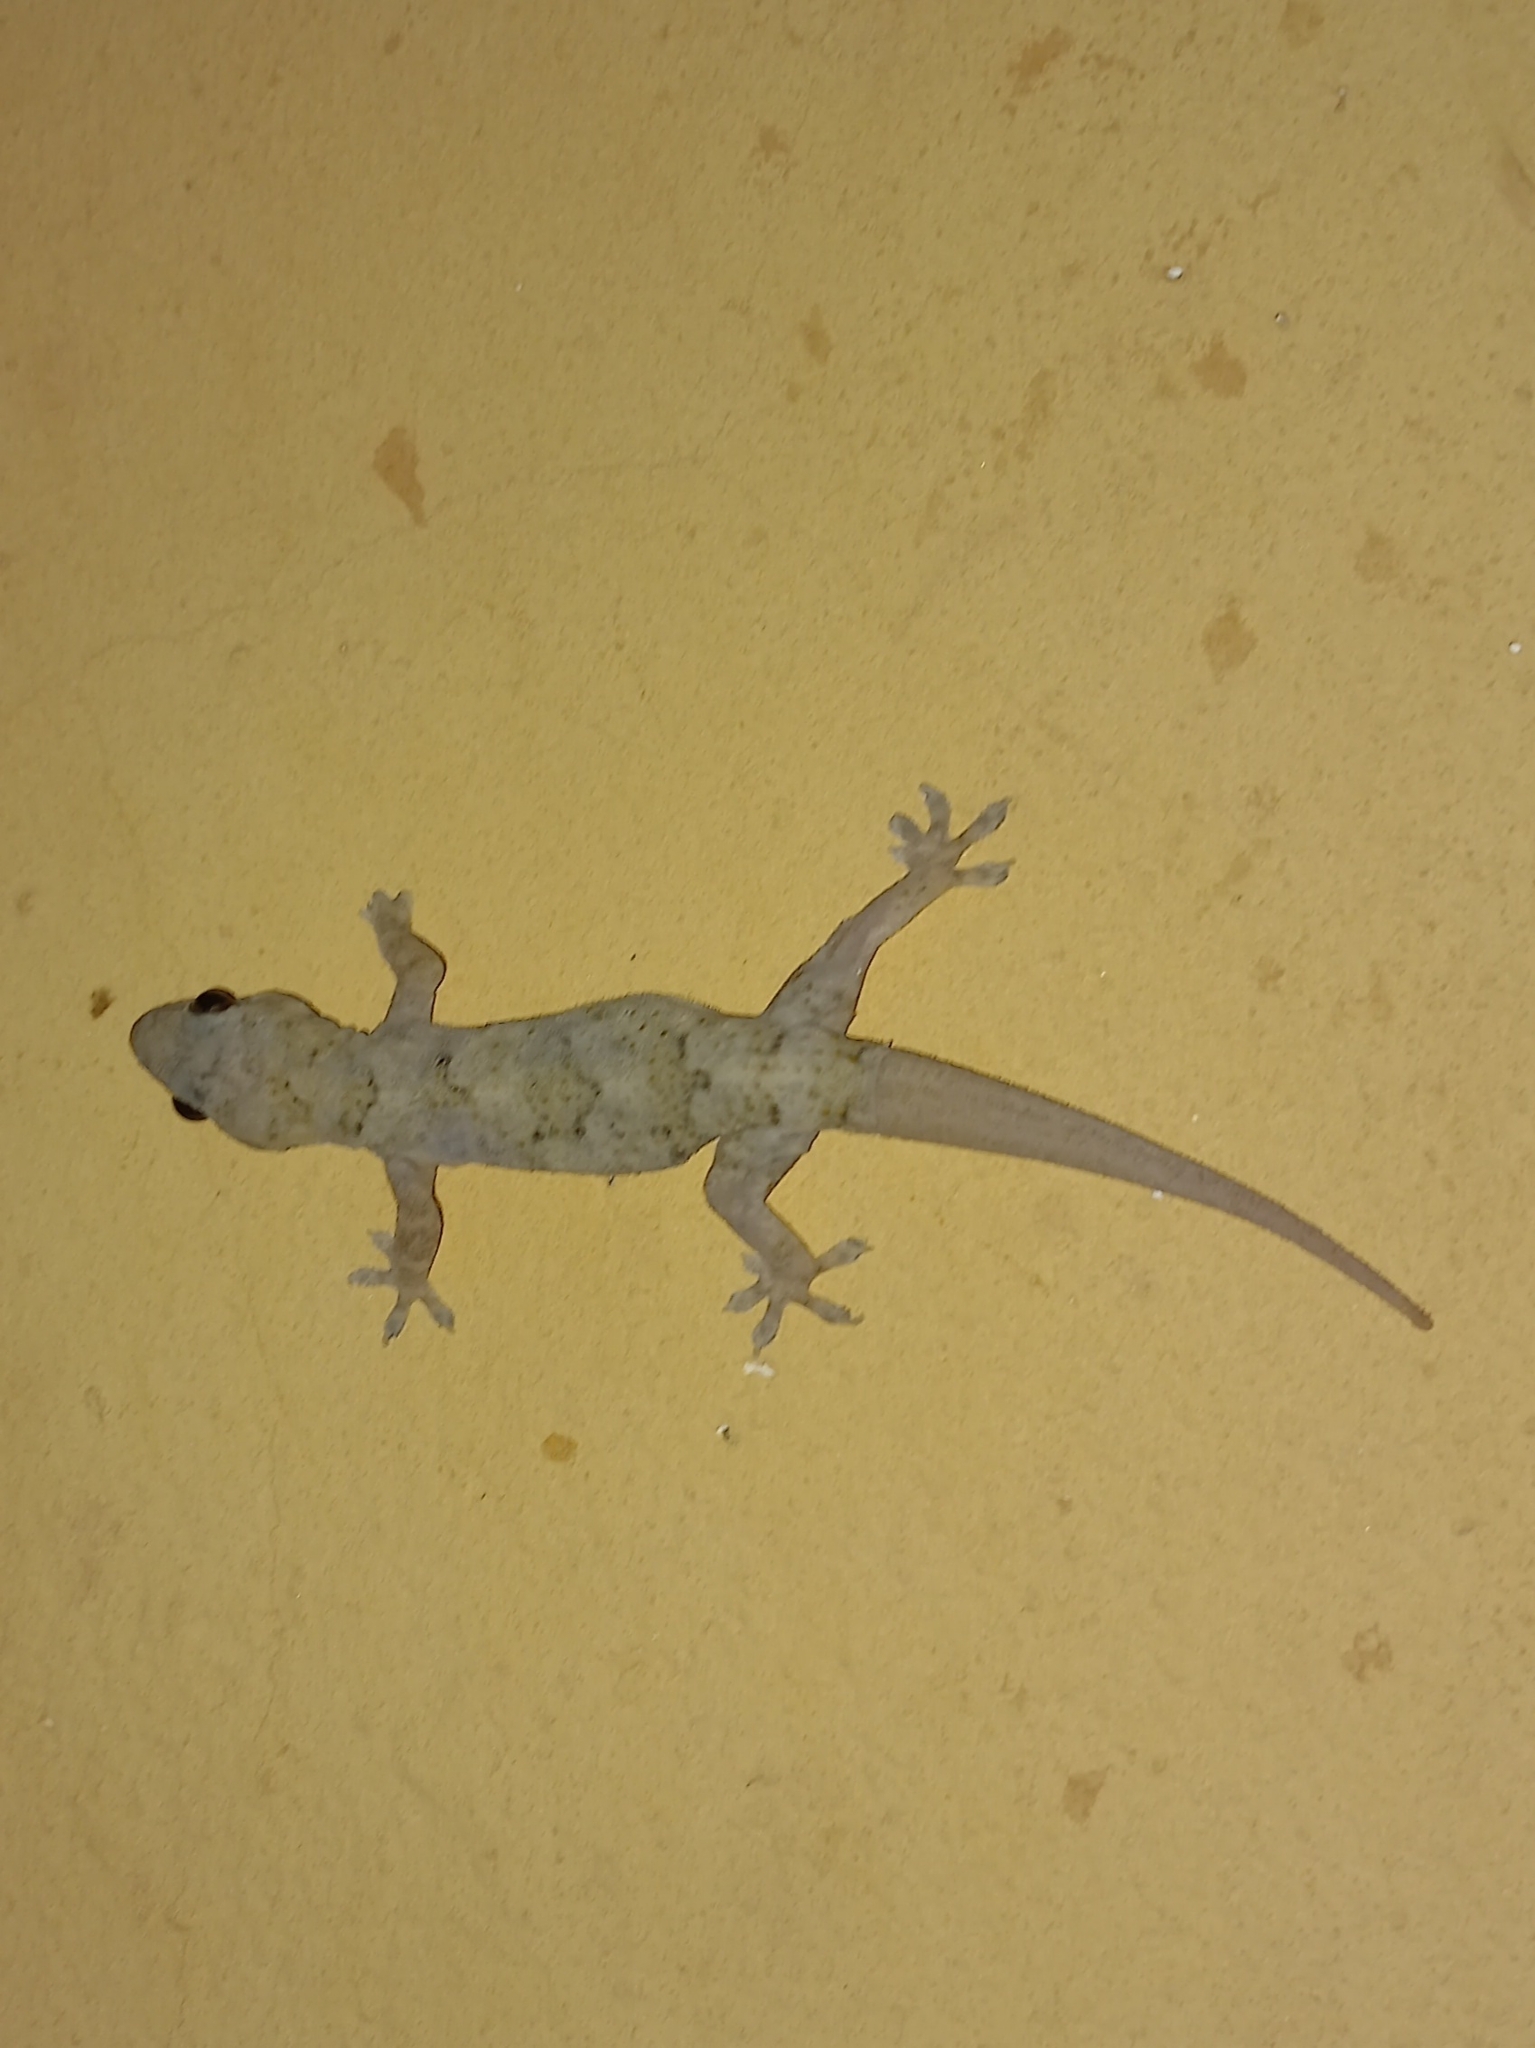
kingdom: Animalia
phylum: Chordata
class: Squamata
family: Gekkonidae
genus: Hemidactylus
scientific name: Hemidactylus mabouia
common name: House gecko
